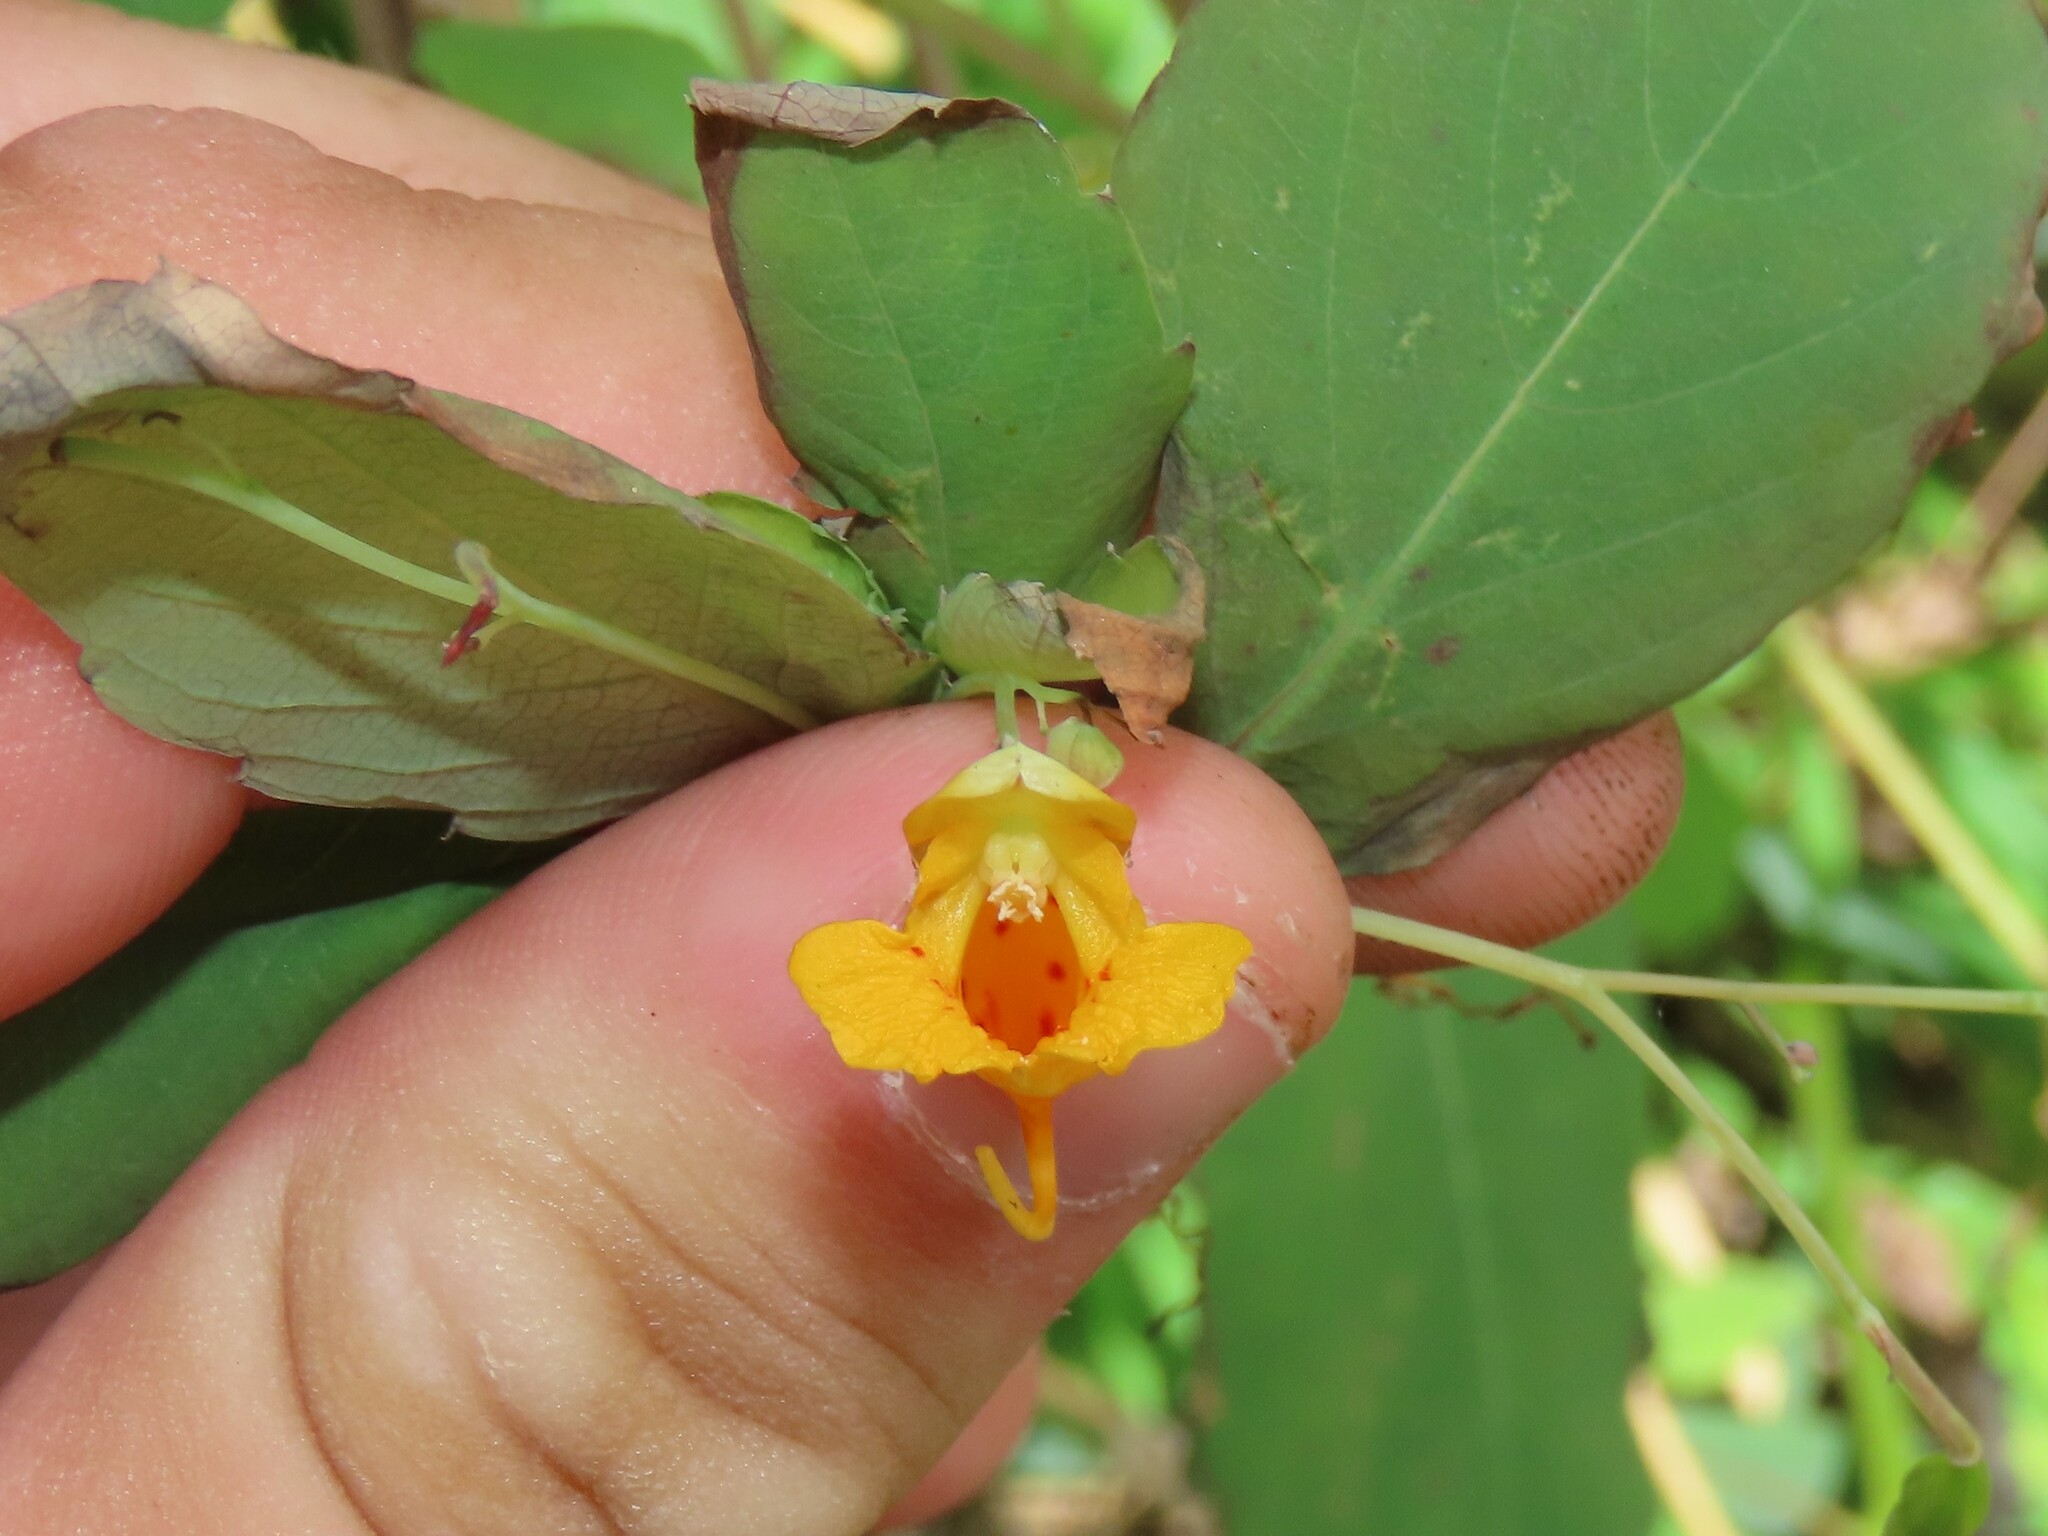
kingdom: Plantae
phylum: Tracheophyta
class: Magnoliopsida
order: Ericales
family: Balsaminaceae
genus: Impatiens
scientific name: Impatiens capensis
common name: Orange balsam
